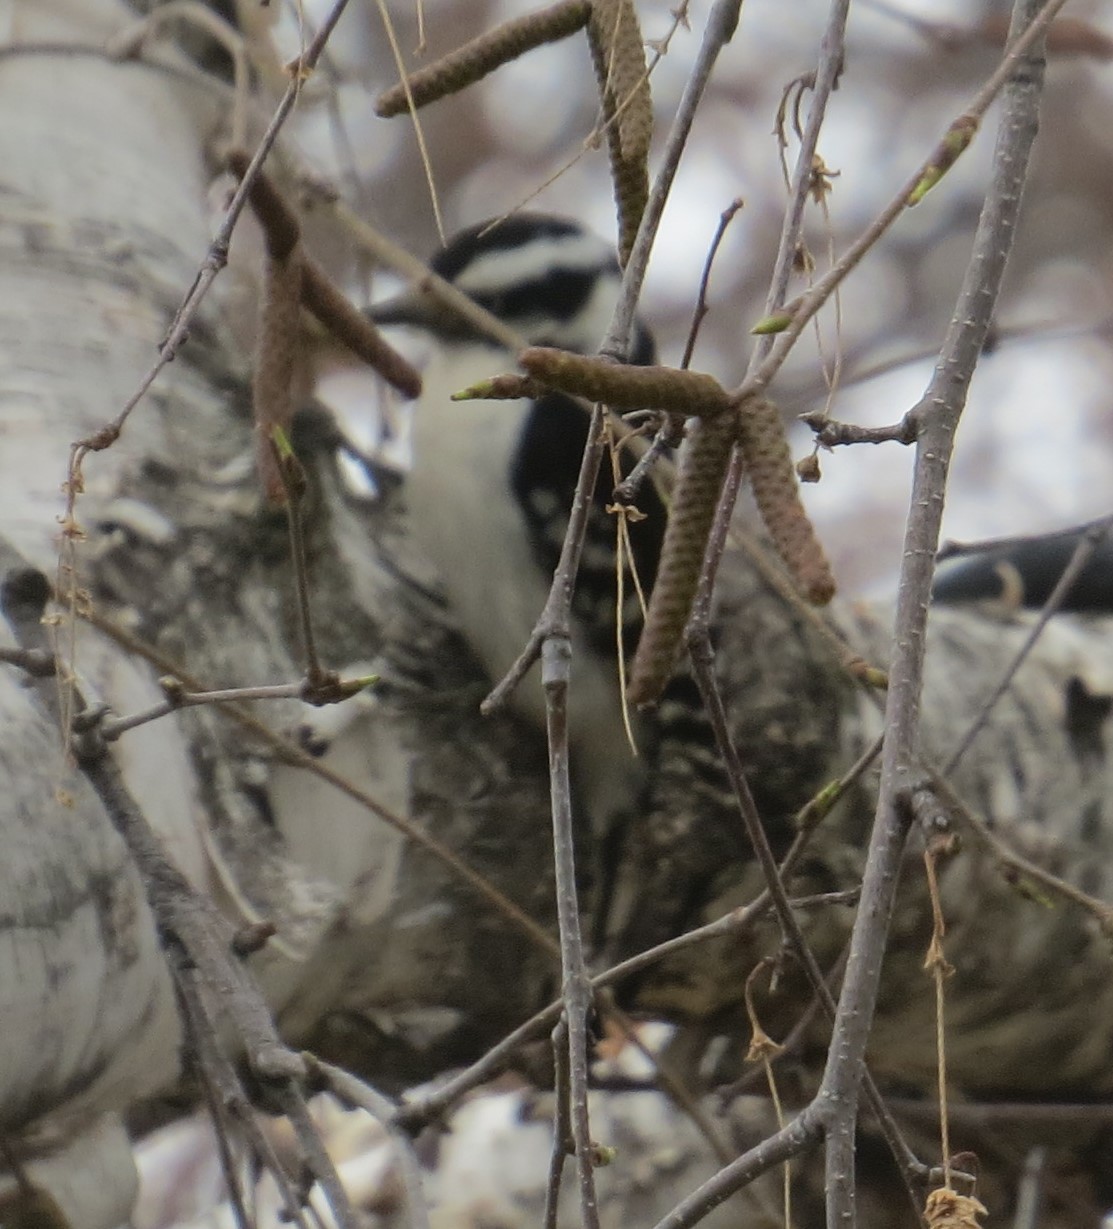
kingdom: Animalia
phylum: Chordata
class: Aves
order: Piciformes
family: Picidae
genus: Dryobates
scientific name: Dryobates pubescens
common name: Downy woodpecker
